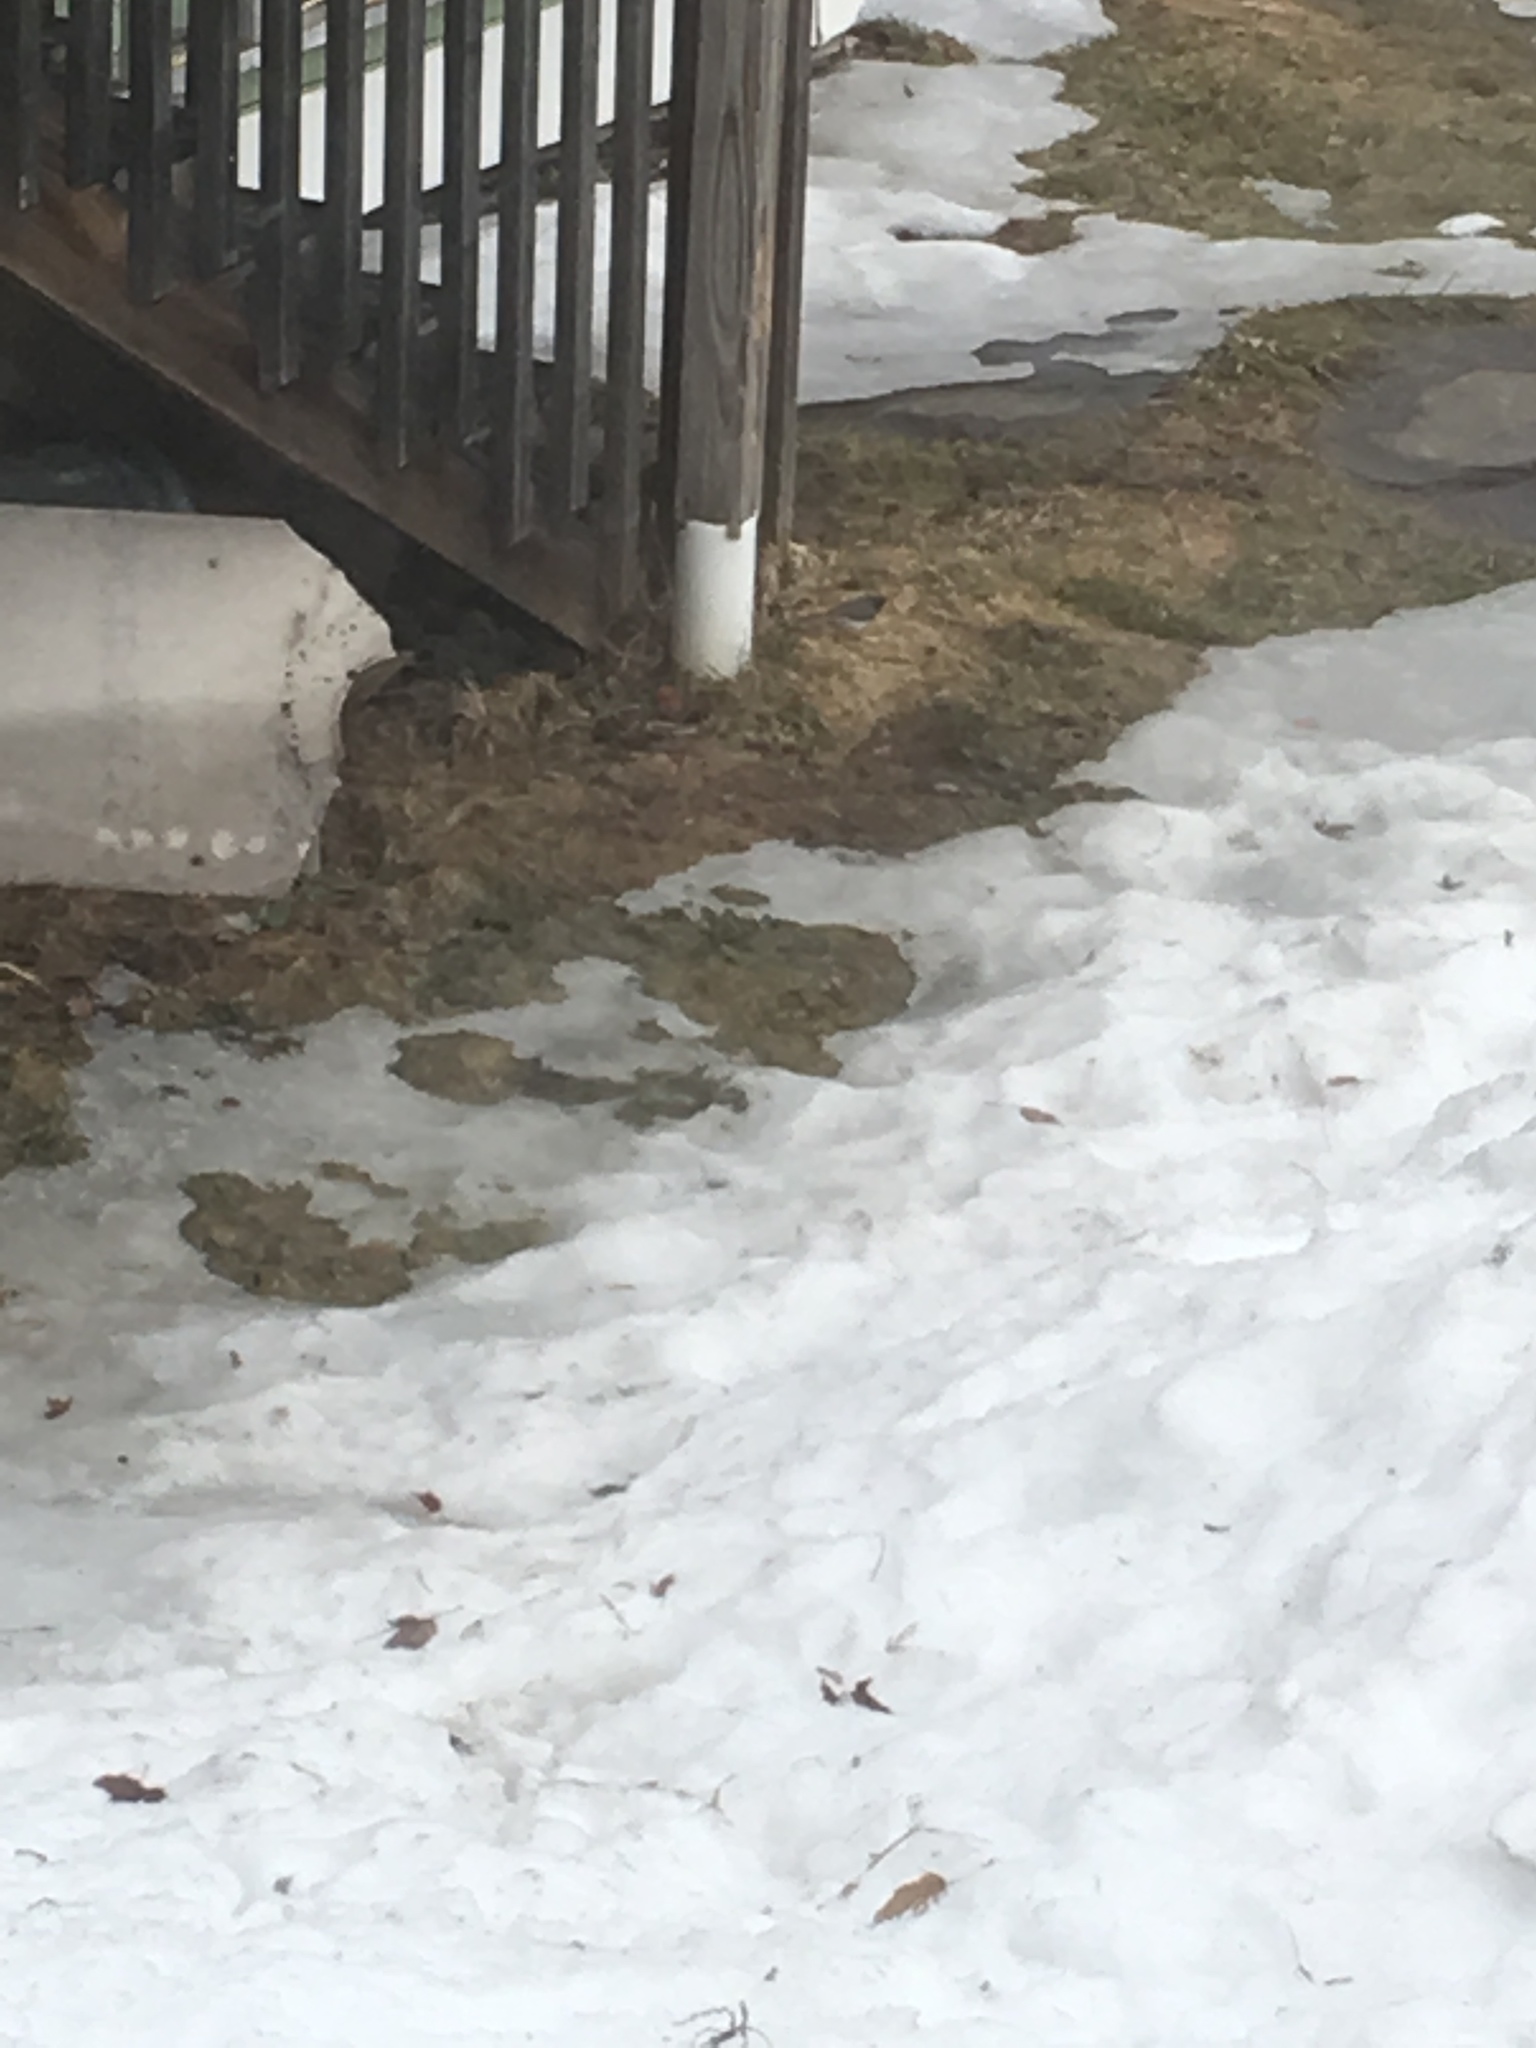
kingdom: Animalia
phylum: Chordata
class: Aves
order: Passeriformes
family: Passerellidae
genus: Junco
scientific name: Junco hyemalis
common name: Dark-eyed junco
